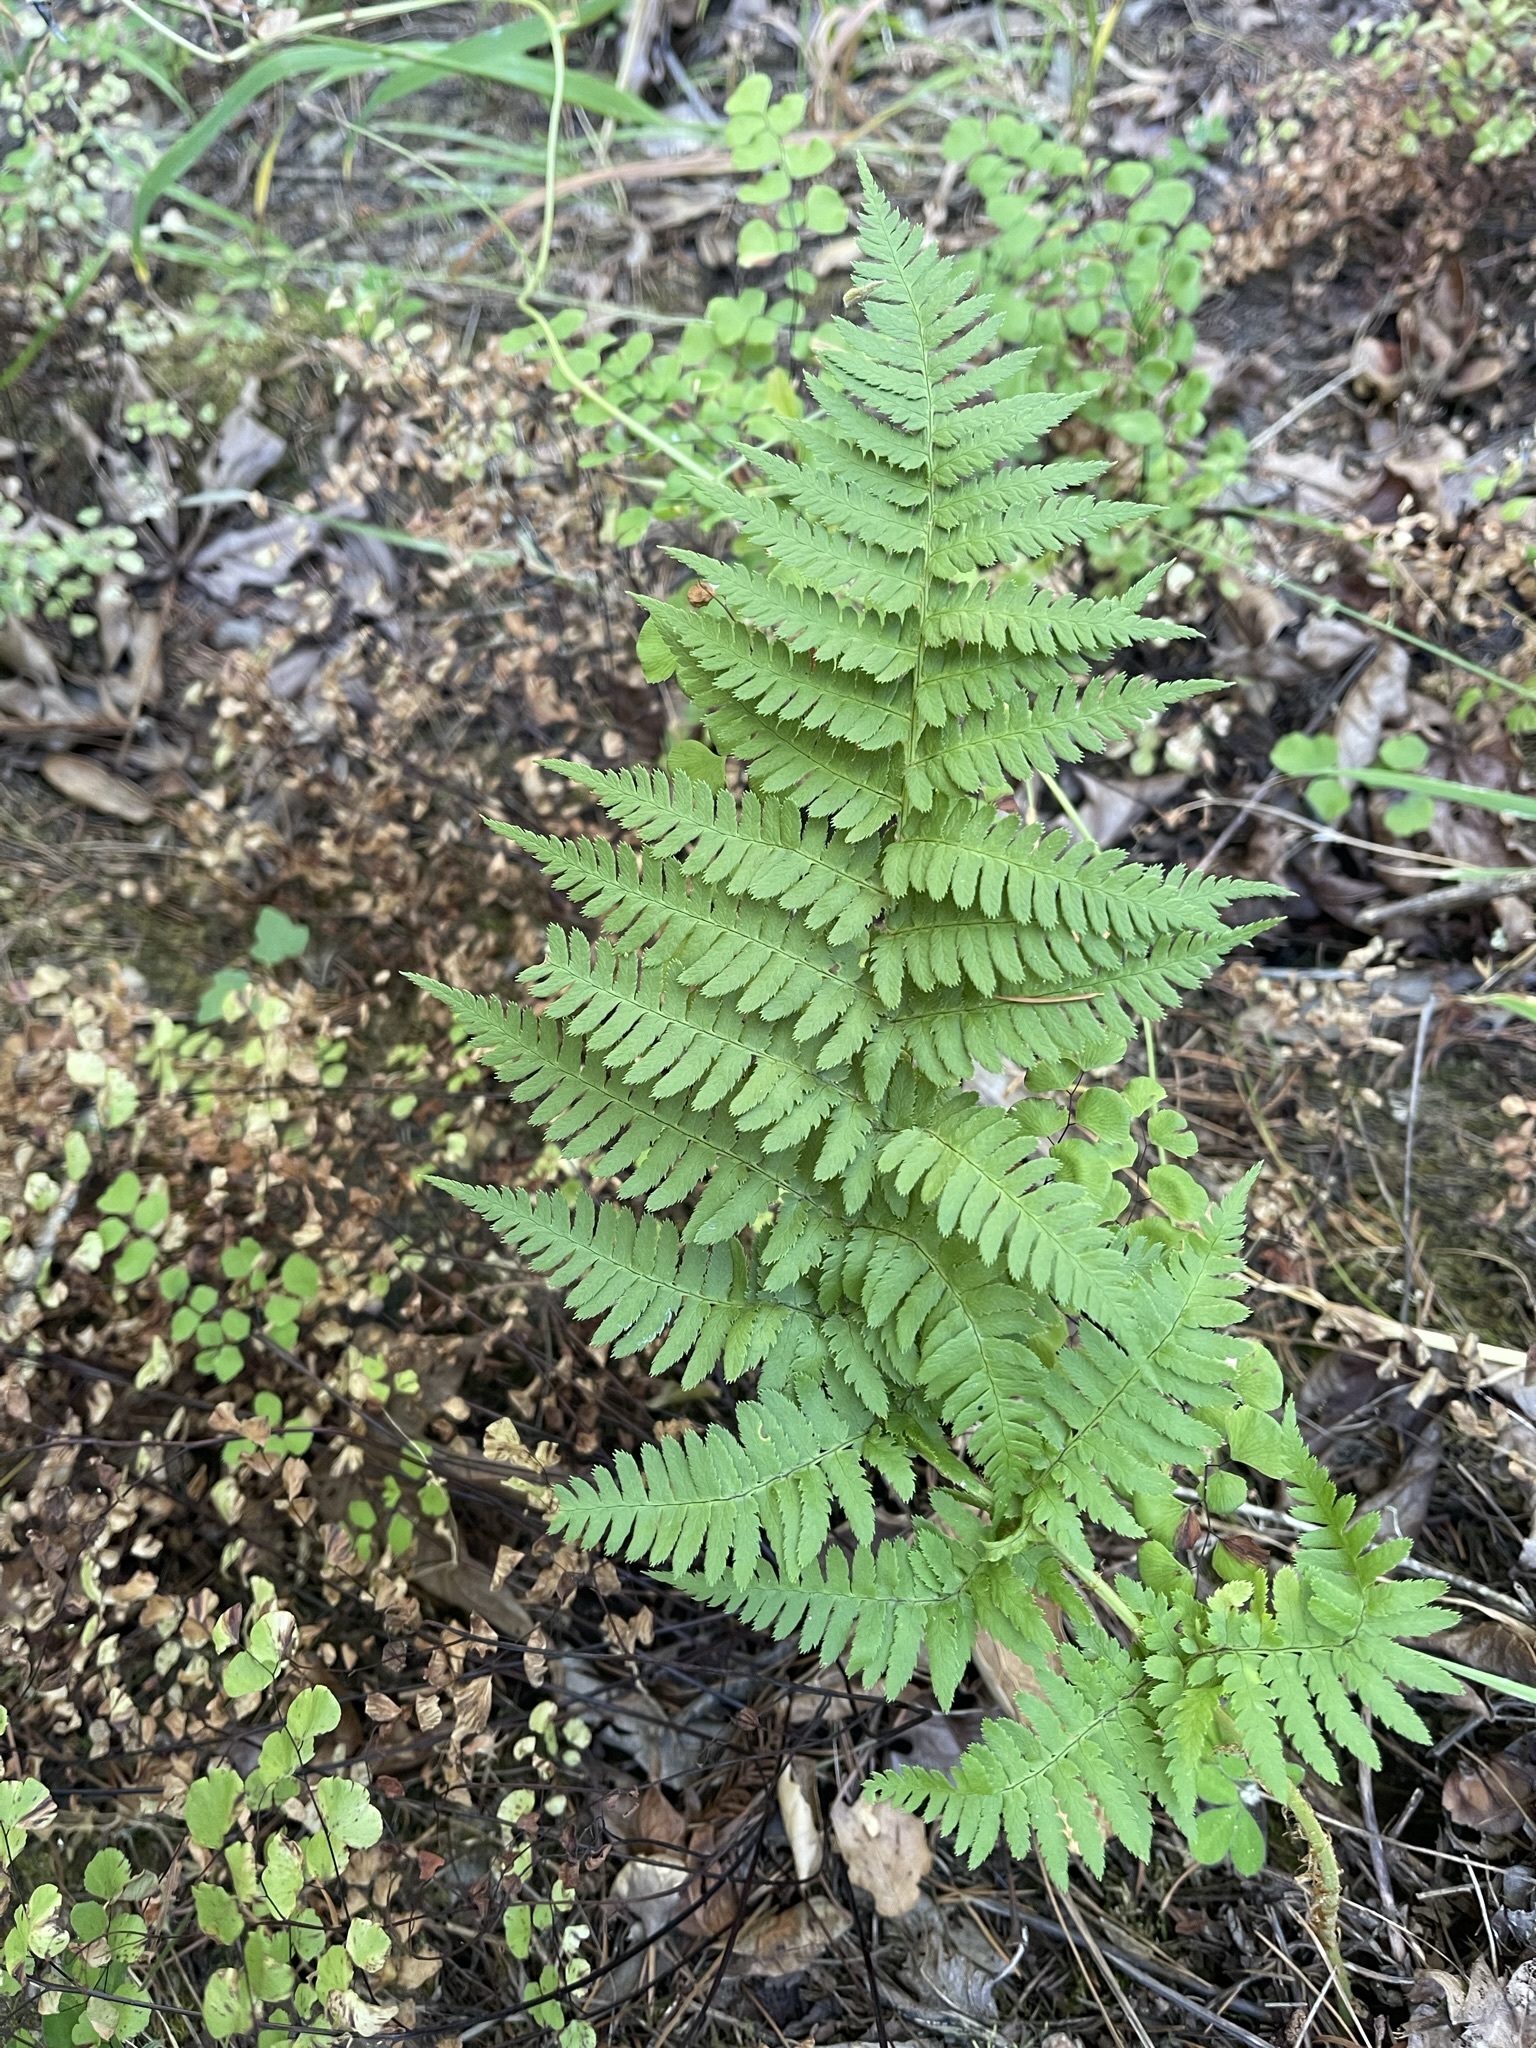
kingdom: Plantae
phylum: Tracheophyta
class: Polypodiopsida
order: Polypodiales
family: Dryopteridaceae
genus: Dryopteris
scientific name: Dryopteris arguta
